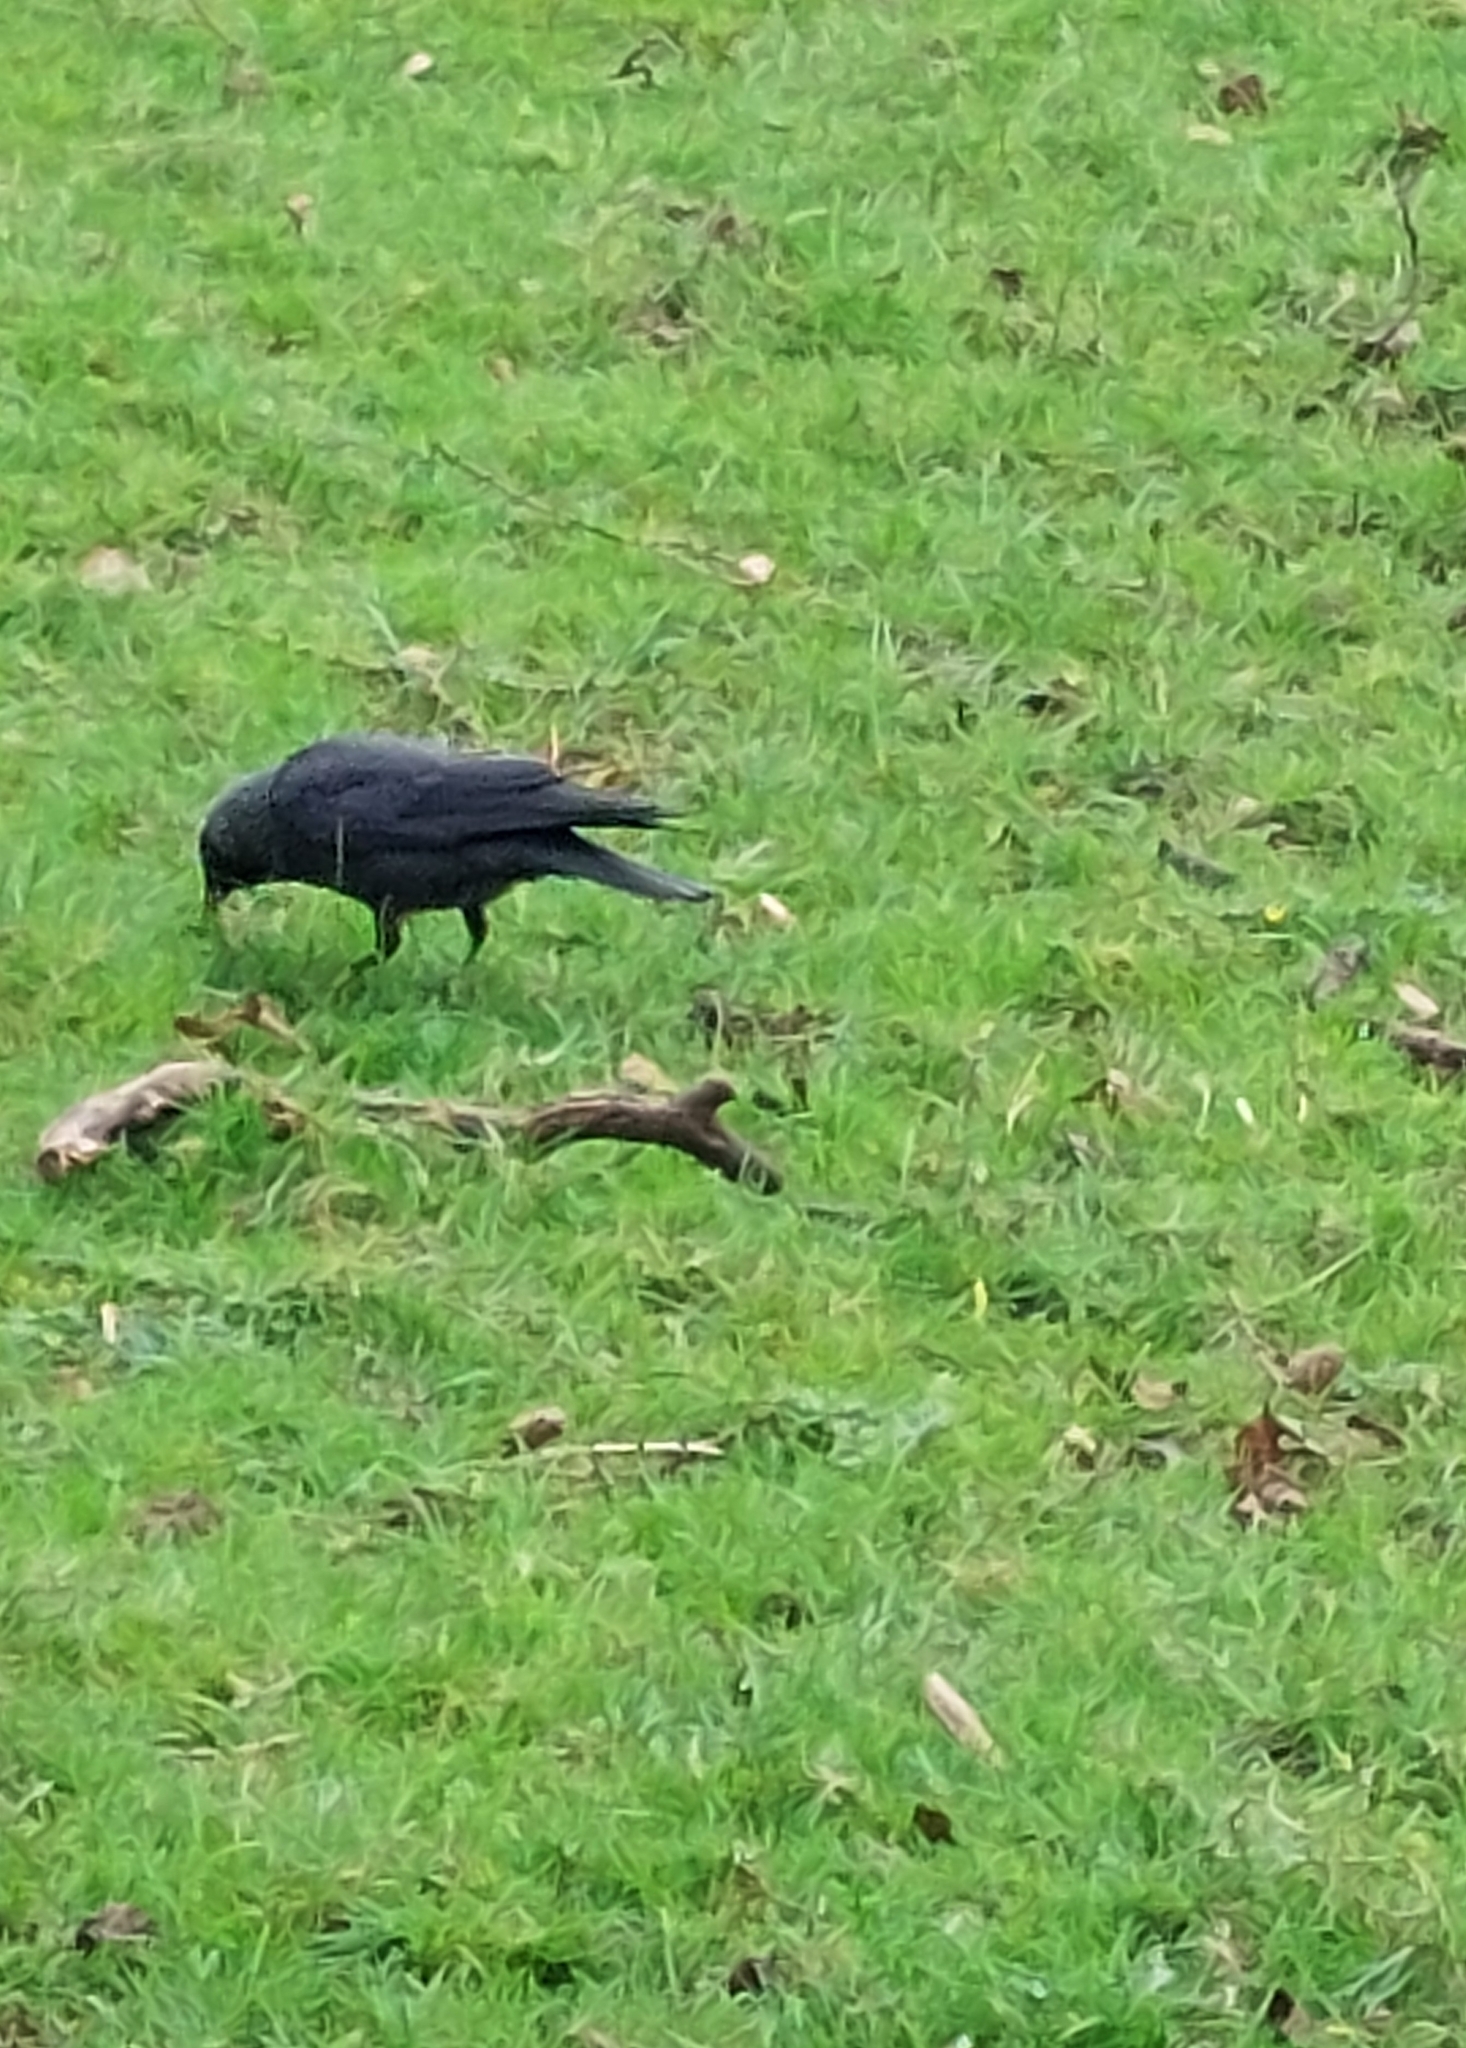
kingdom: Animalia
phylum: Chordata
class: Aves
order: Passeriformes
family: Corvidae
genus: Coloeus
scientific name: Coloeus monedula
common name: Western jackdaw
